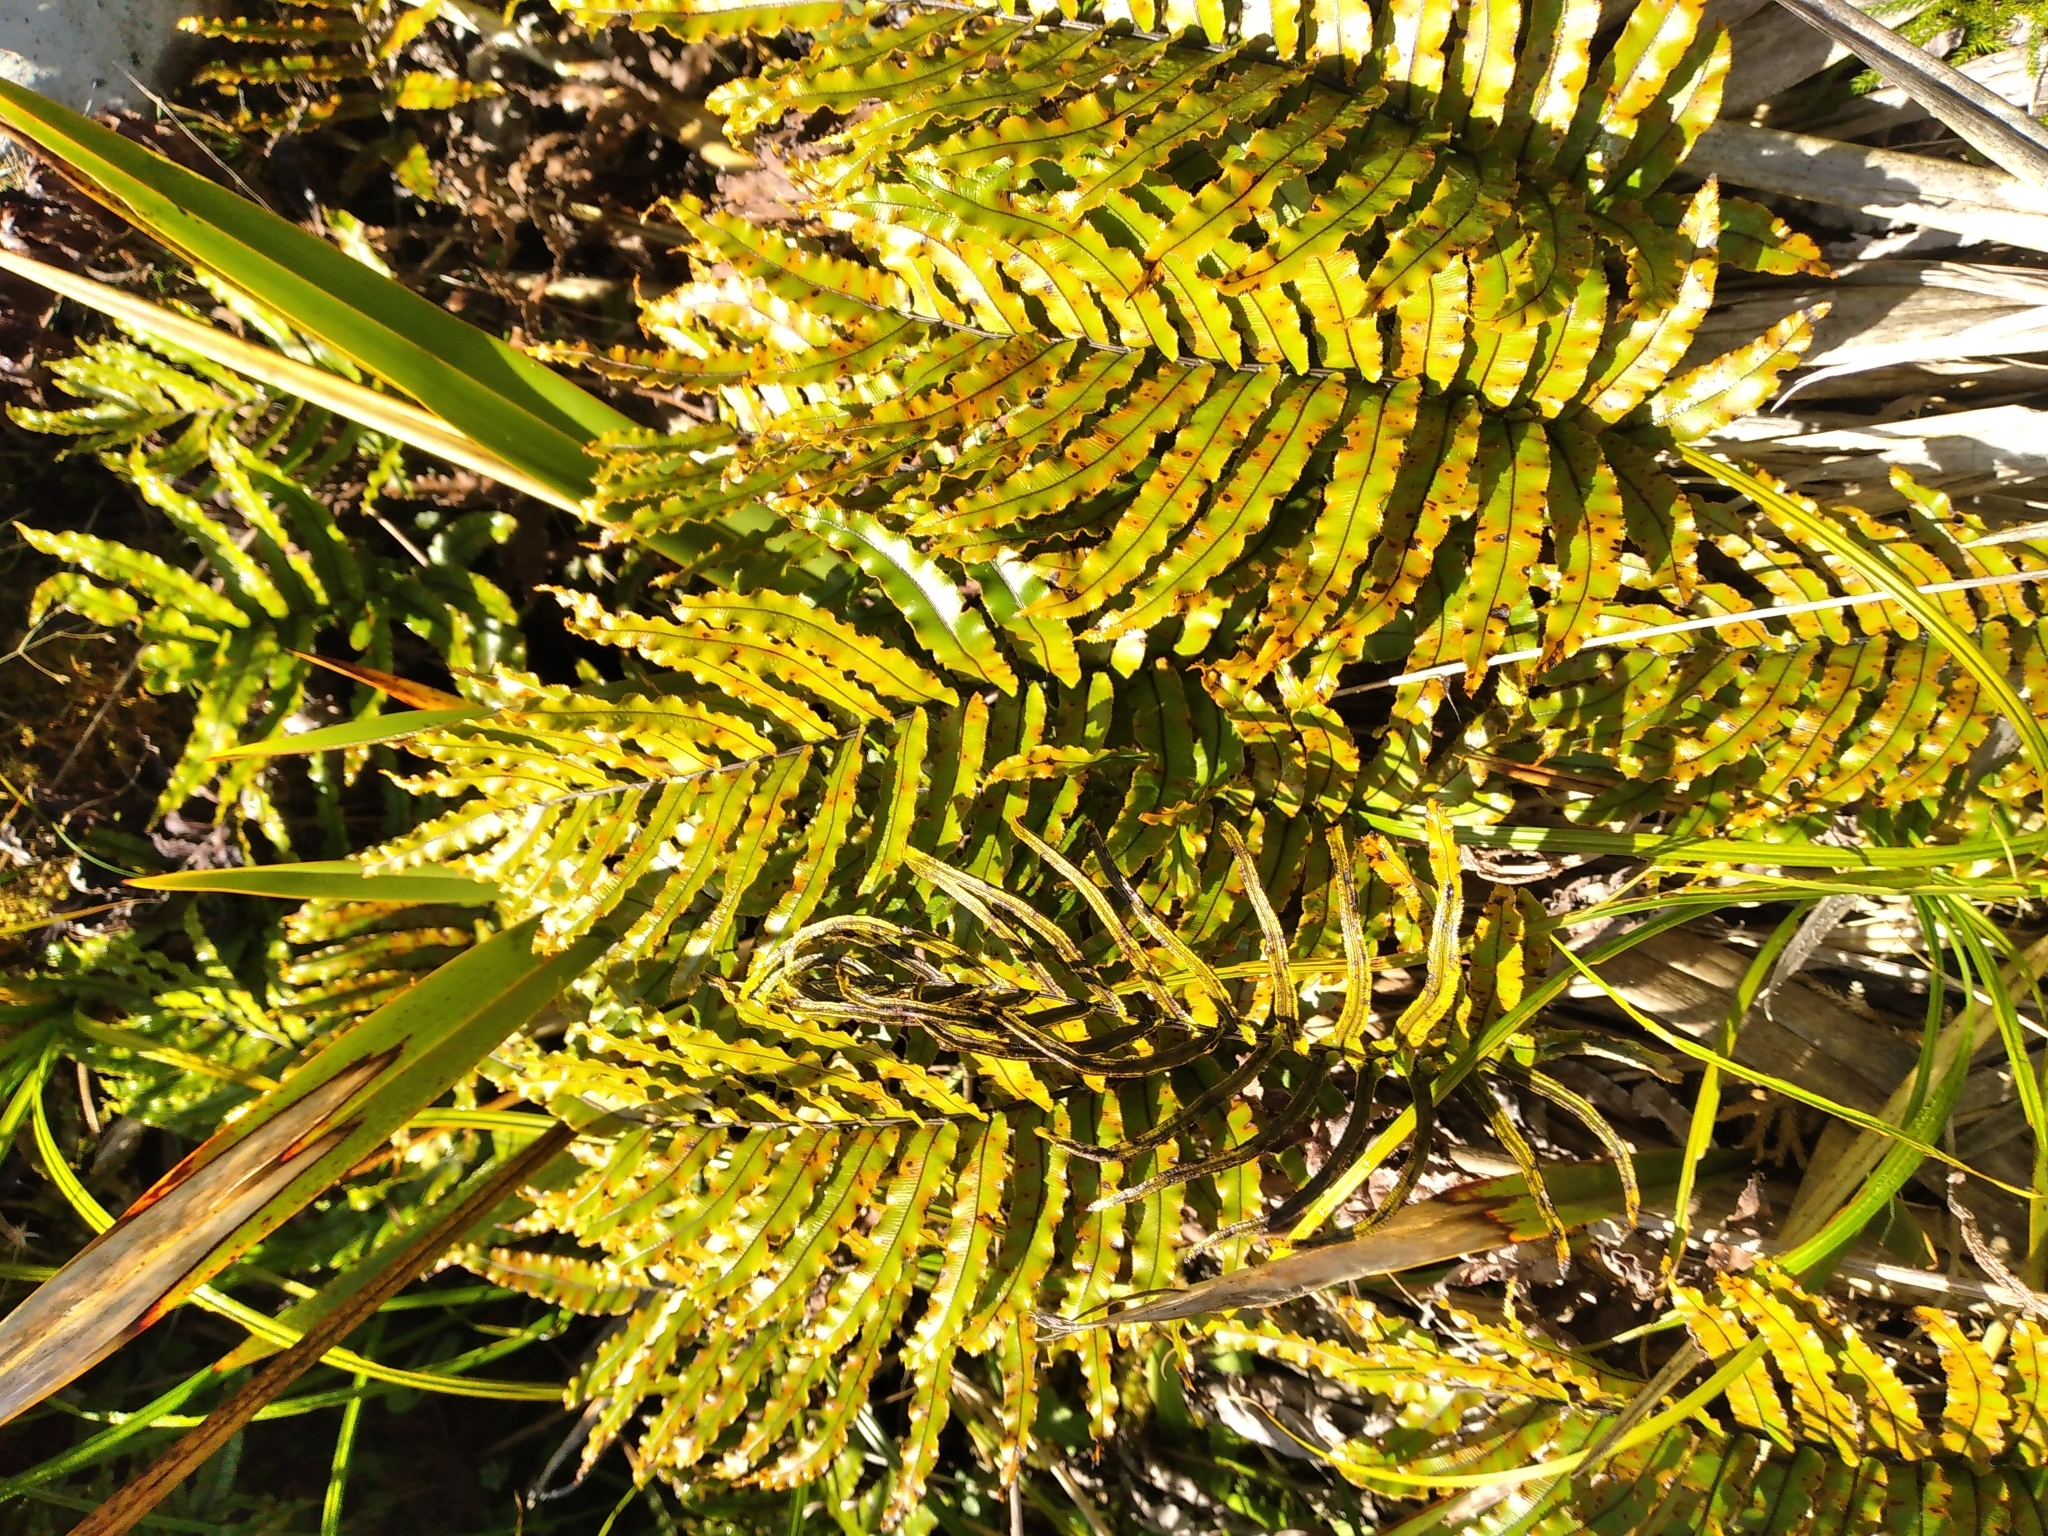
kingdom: Plantae
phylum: Tracheophyta
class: Polypodiopsida
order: Polypodiales
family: Blechnaceae
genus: Parablechnum
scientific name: Parablechnum montanum
